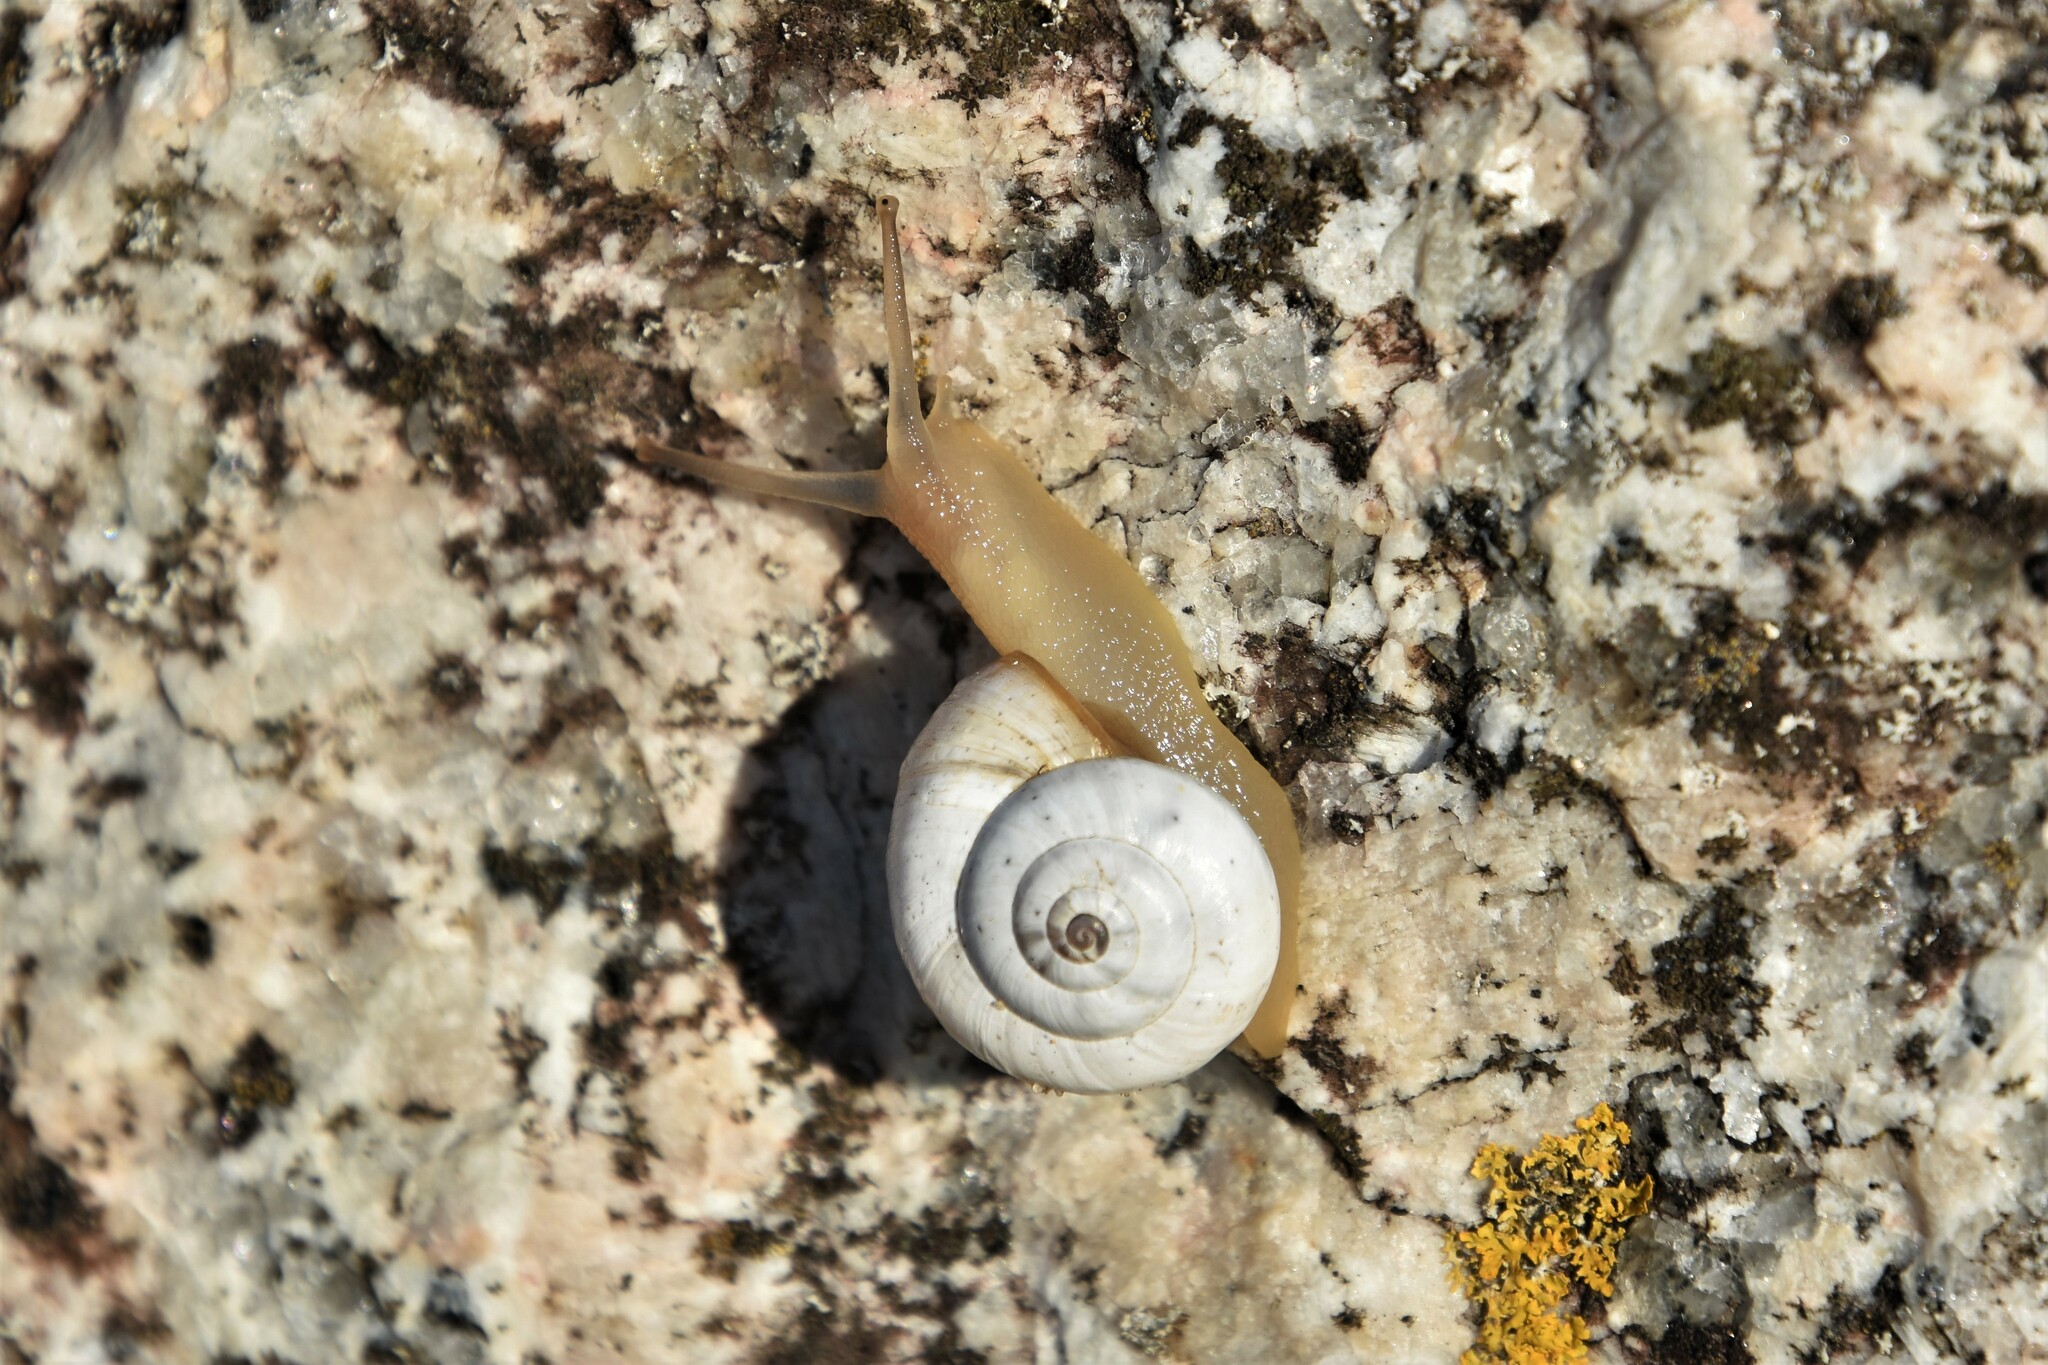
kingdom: Animalia
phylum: Mollusca
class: Gastropoda
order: Stylommatophora
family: Helicidae
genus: Theba
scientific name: Theba pisana
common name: White snail
